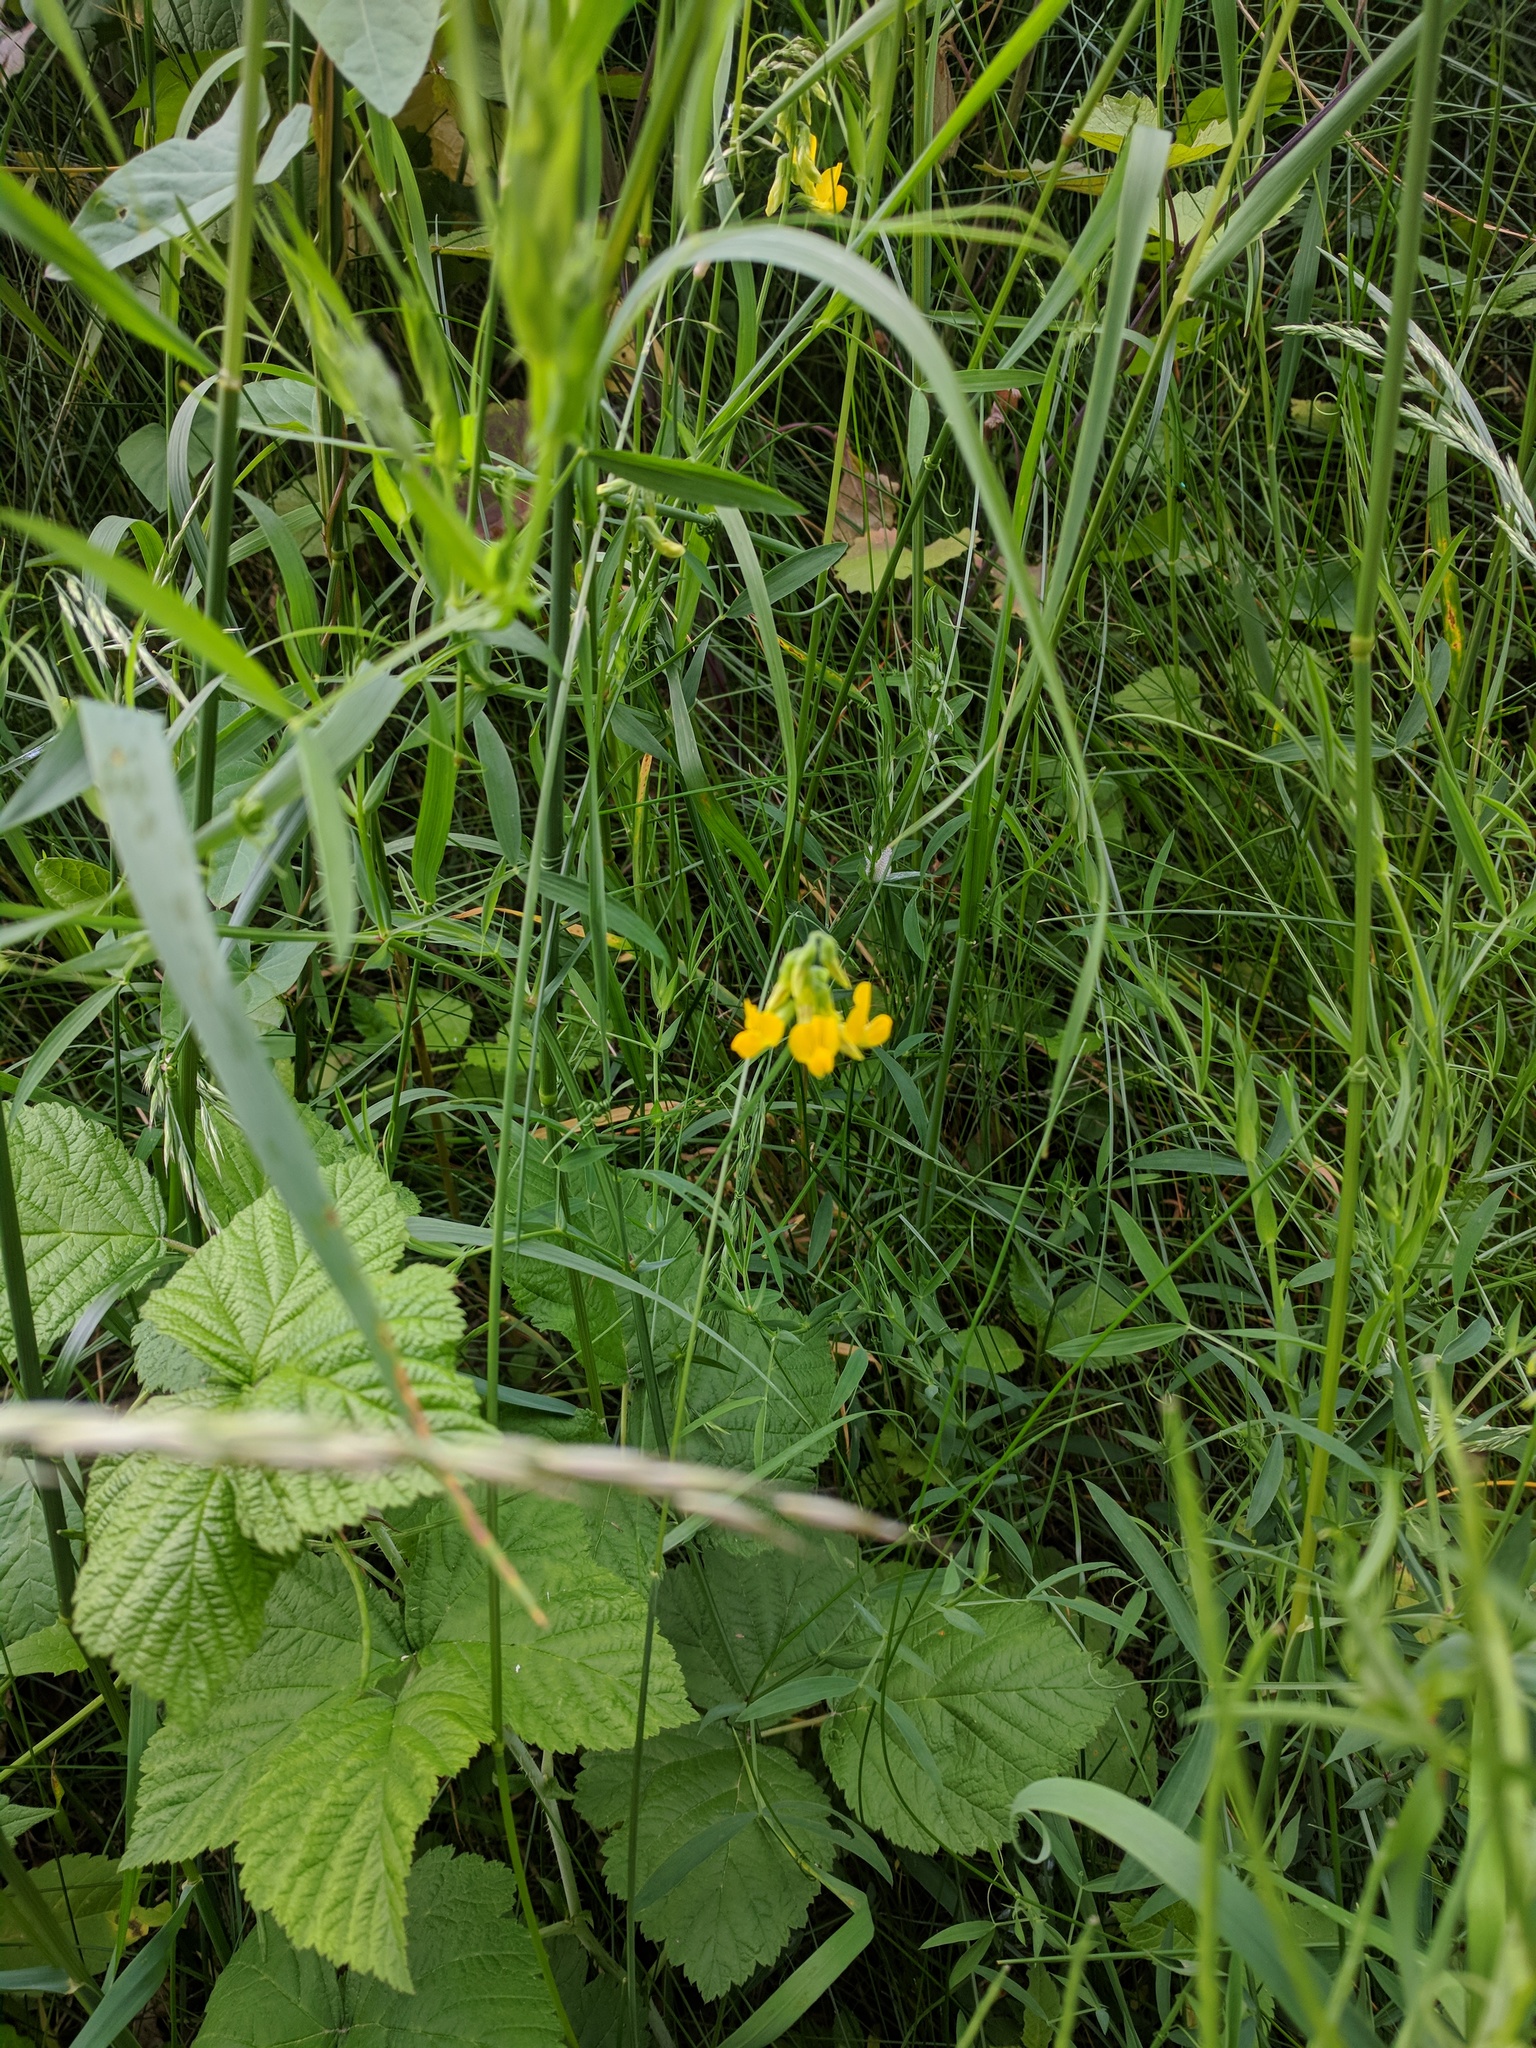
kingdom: Plantae
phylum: Tracheophyta
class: Magnoliopsida
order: Fabales
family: Fabaceae
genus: Lathyrus
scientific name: Lathyrus pratensis
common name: Meadow vetchling
